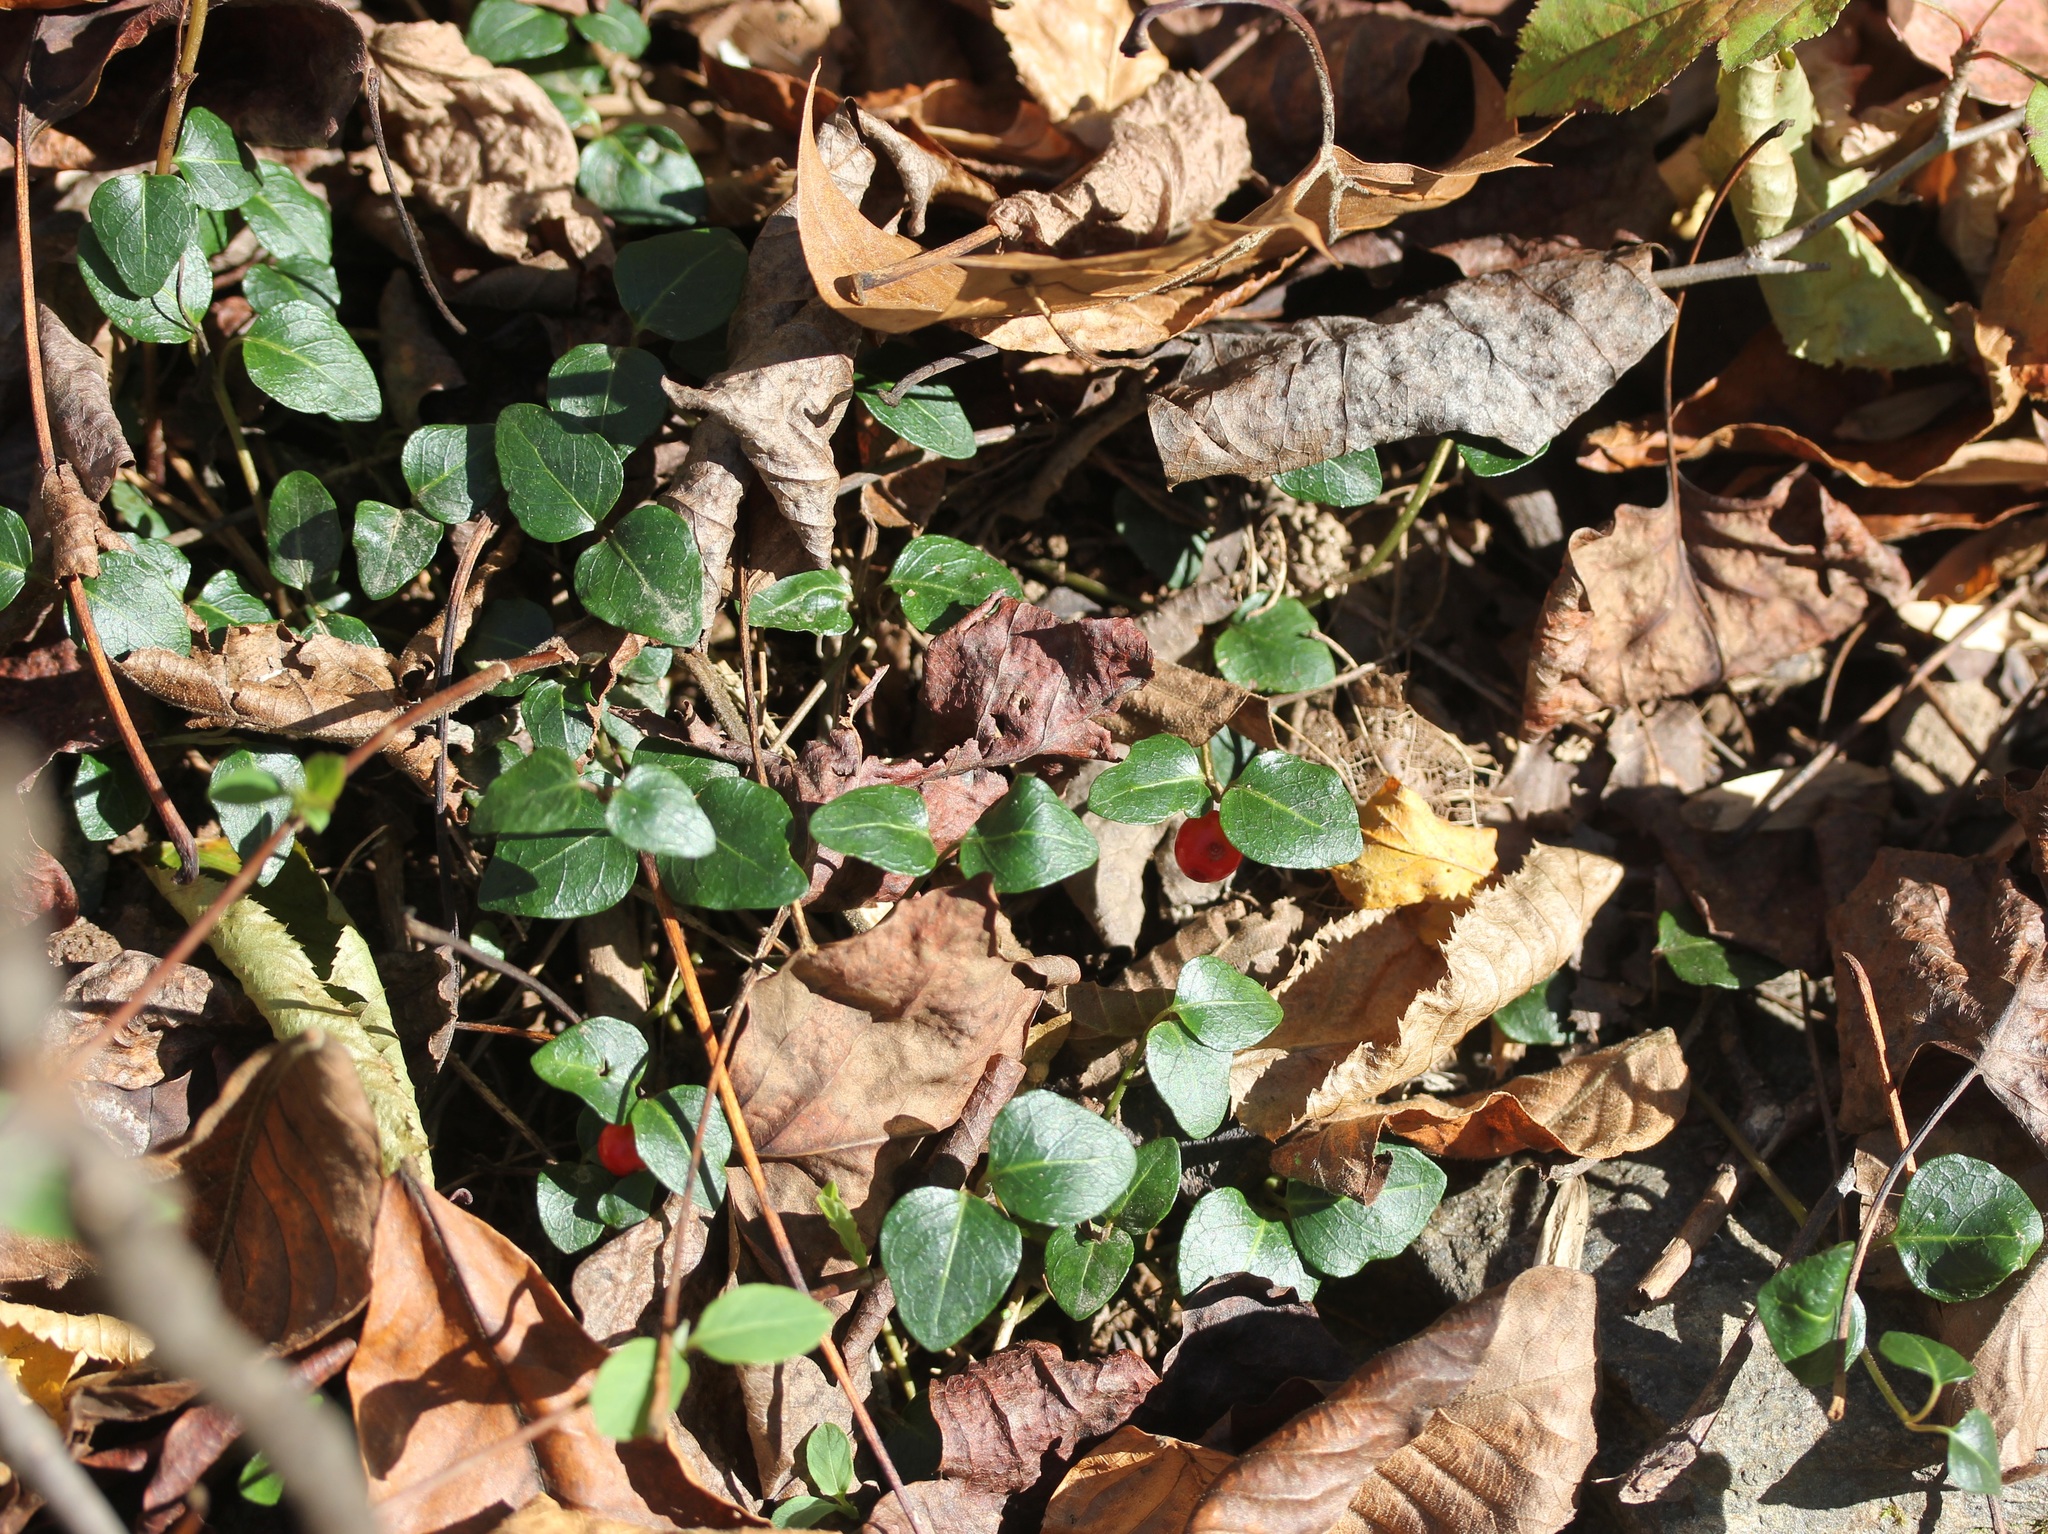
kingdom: Plantae
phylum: Tracheophyta
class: Magnoliopsida
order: Gentianales
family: Rubiaceae
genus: Mitchella
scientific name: Mitchella repens
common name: Partridge-berry
